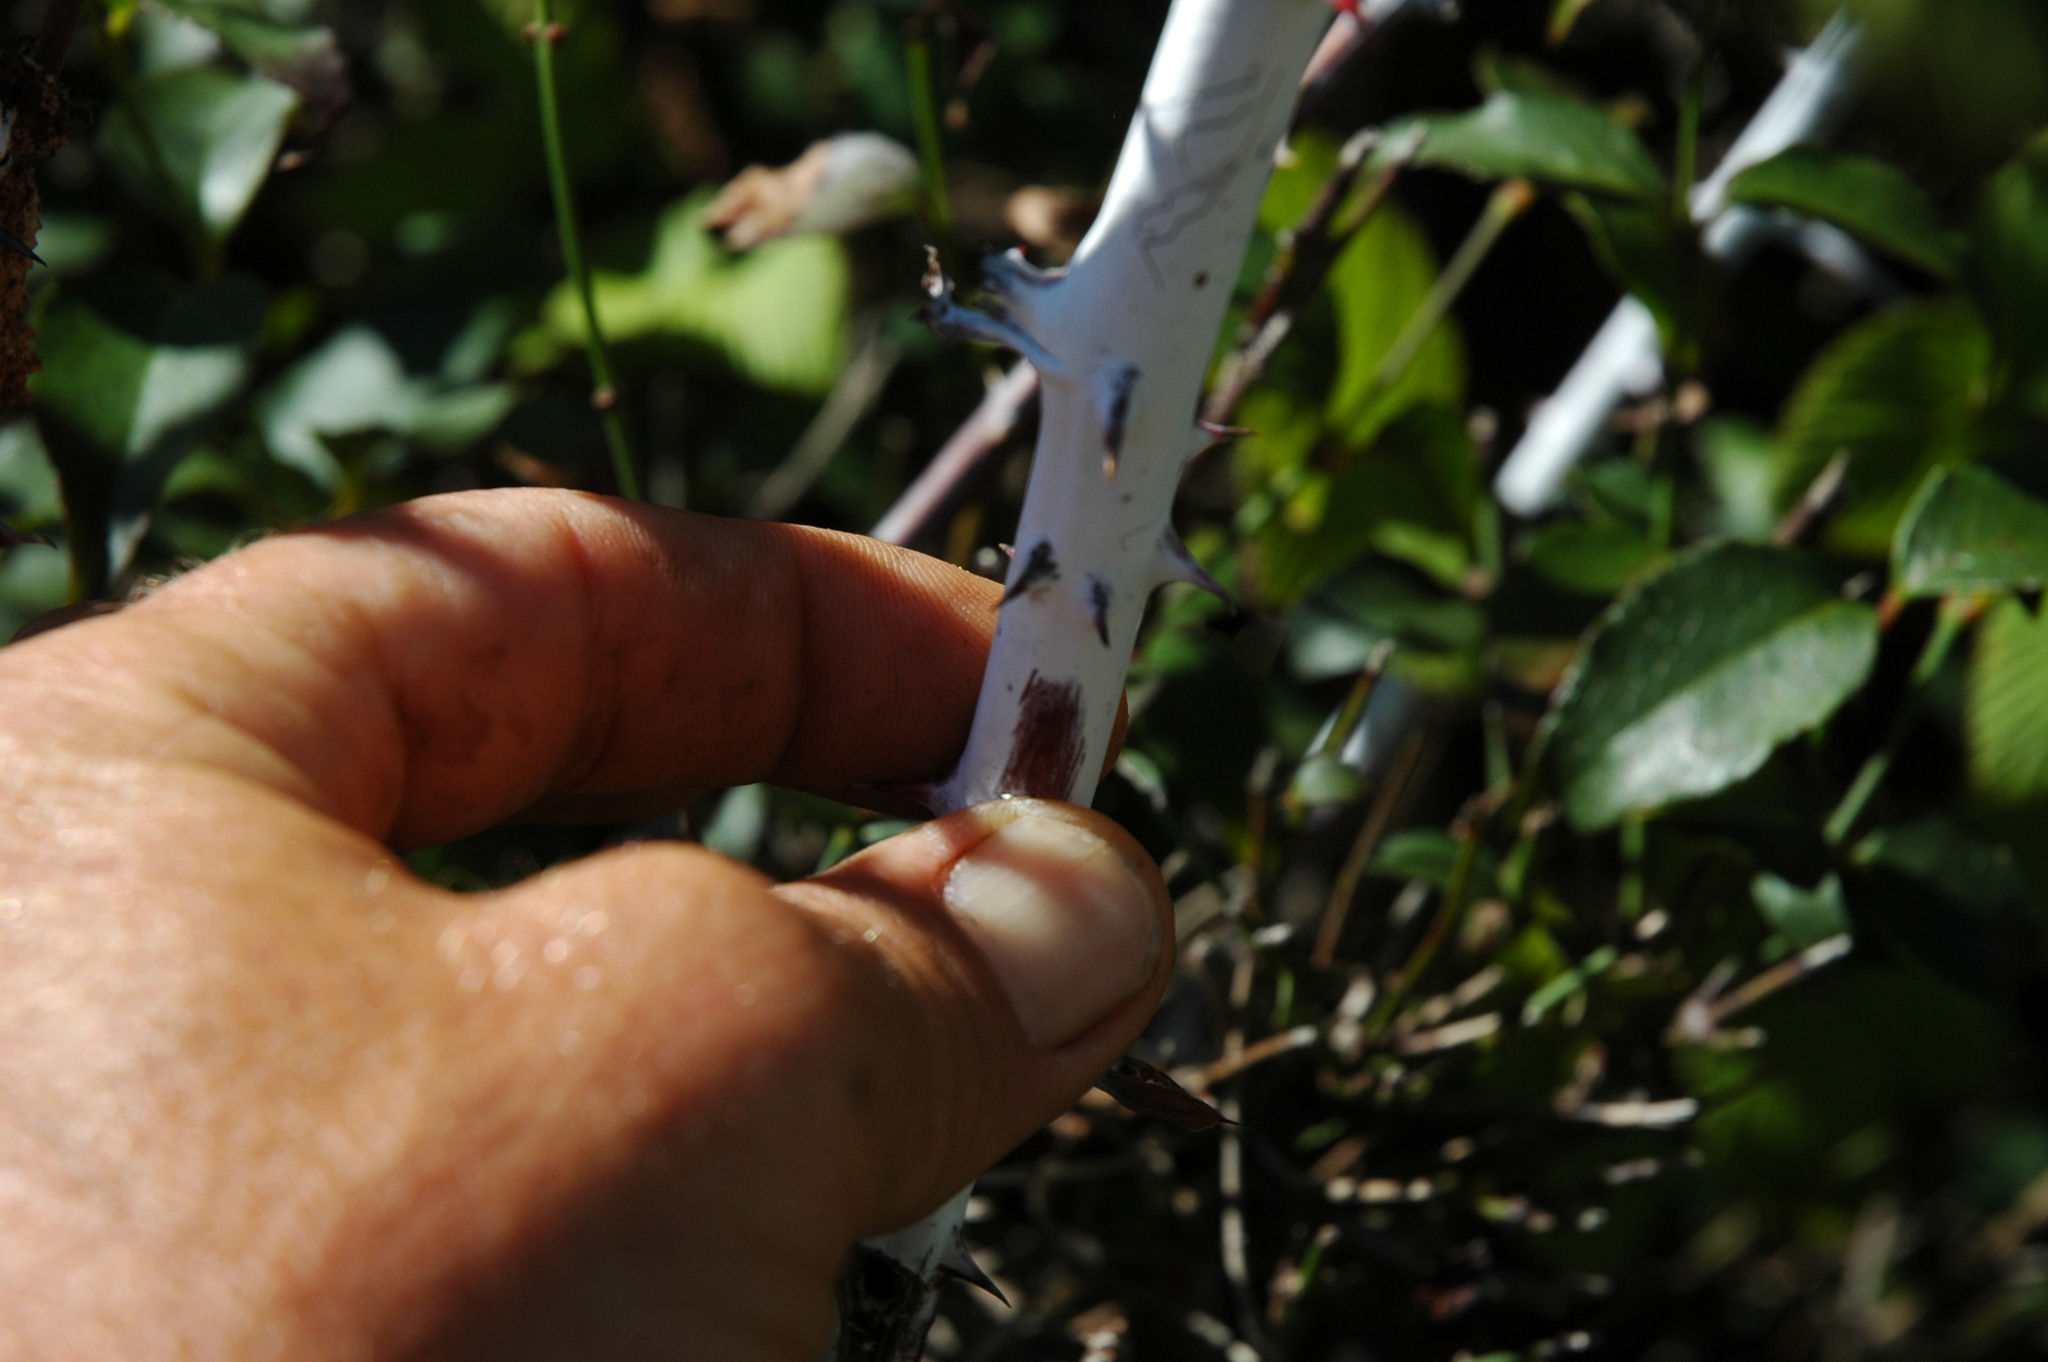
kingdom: Plantae
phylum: Tracheophyta
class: Magnoliopsida
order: Rosales
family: Rosaceae
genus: Rubus
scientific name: Rubus niveus
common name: Snowpeaks raspberry
